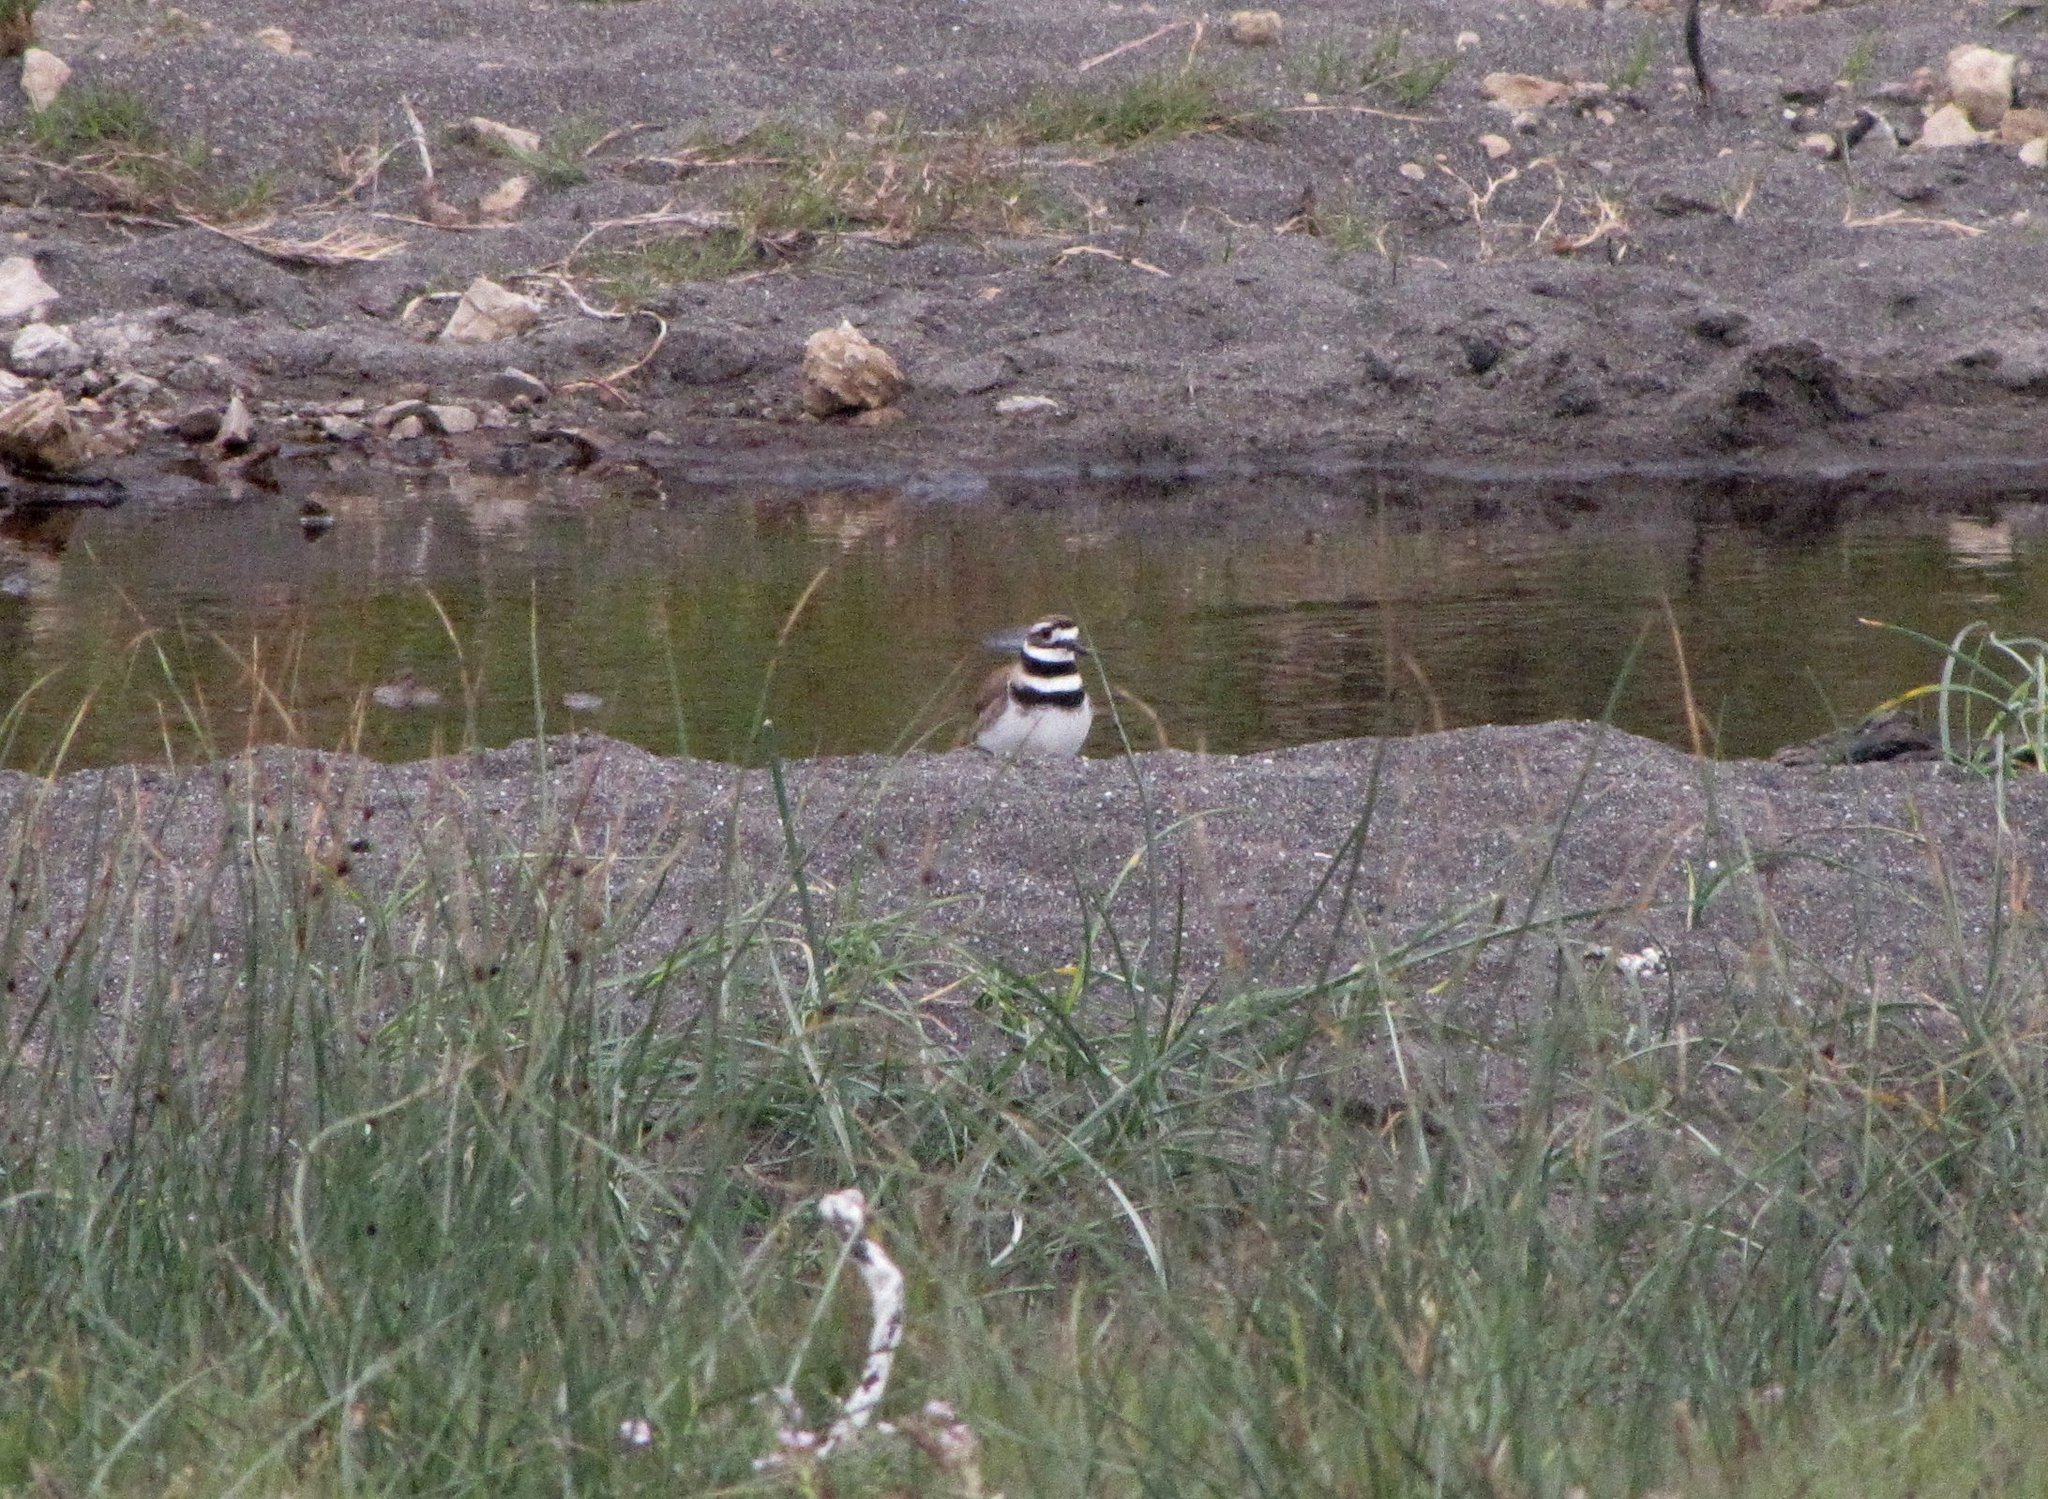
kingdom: Animalia
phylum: Chordata
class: Aves
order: Charadriiformes
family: Charadriidae
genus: Charadrius
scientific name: Charadrius vociferus
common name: Killdeer
